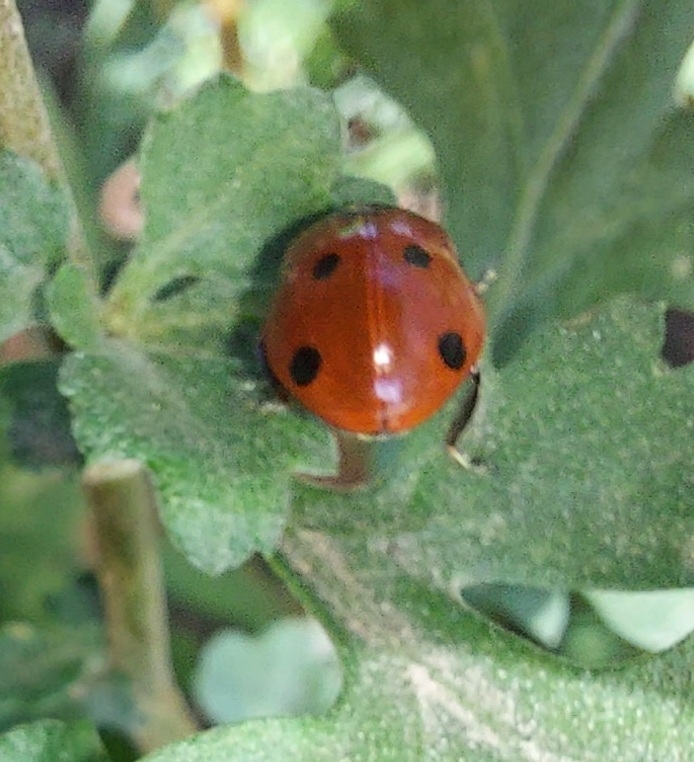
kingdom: Animalia
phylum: Arthropoda
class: Insecta
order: Coleoptera
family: Coccinellidae
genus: Coccinella
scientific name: Coccinella septempunctata
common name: Sevenspotted lady beetle
